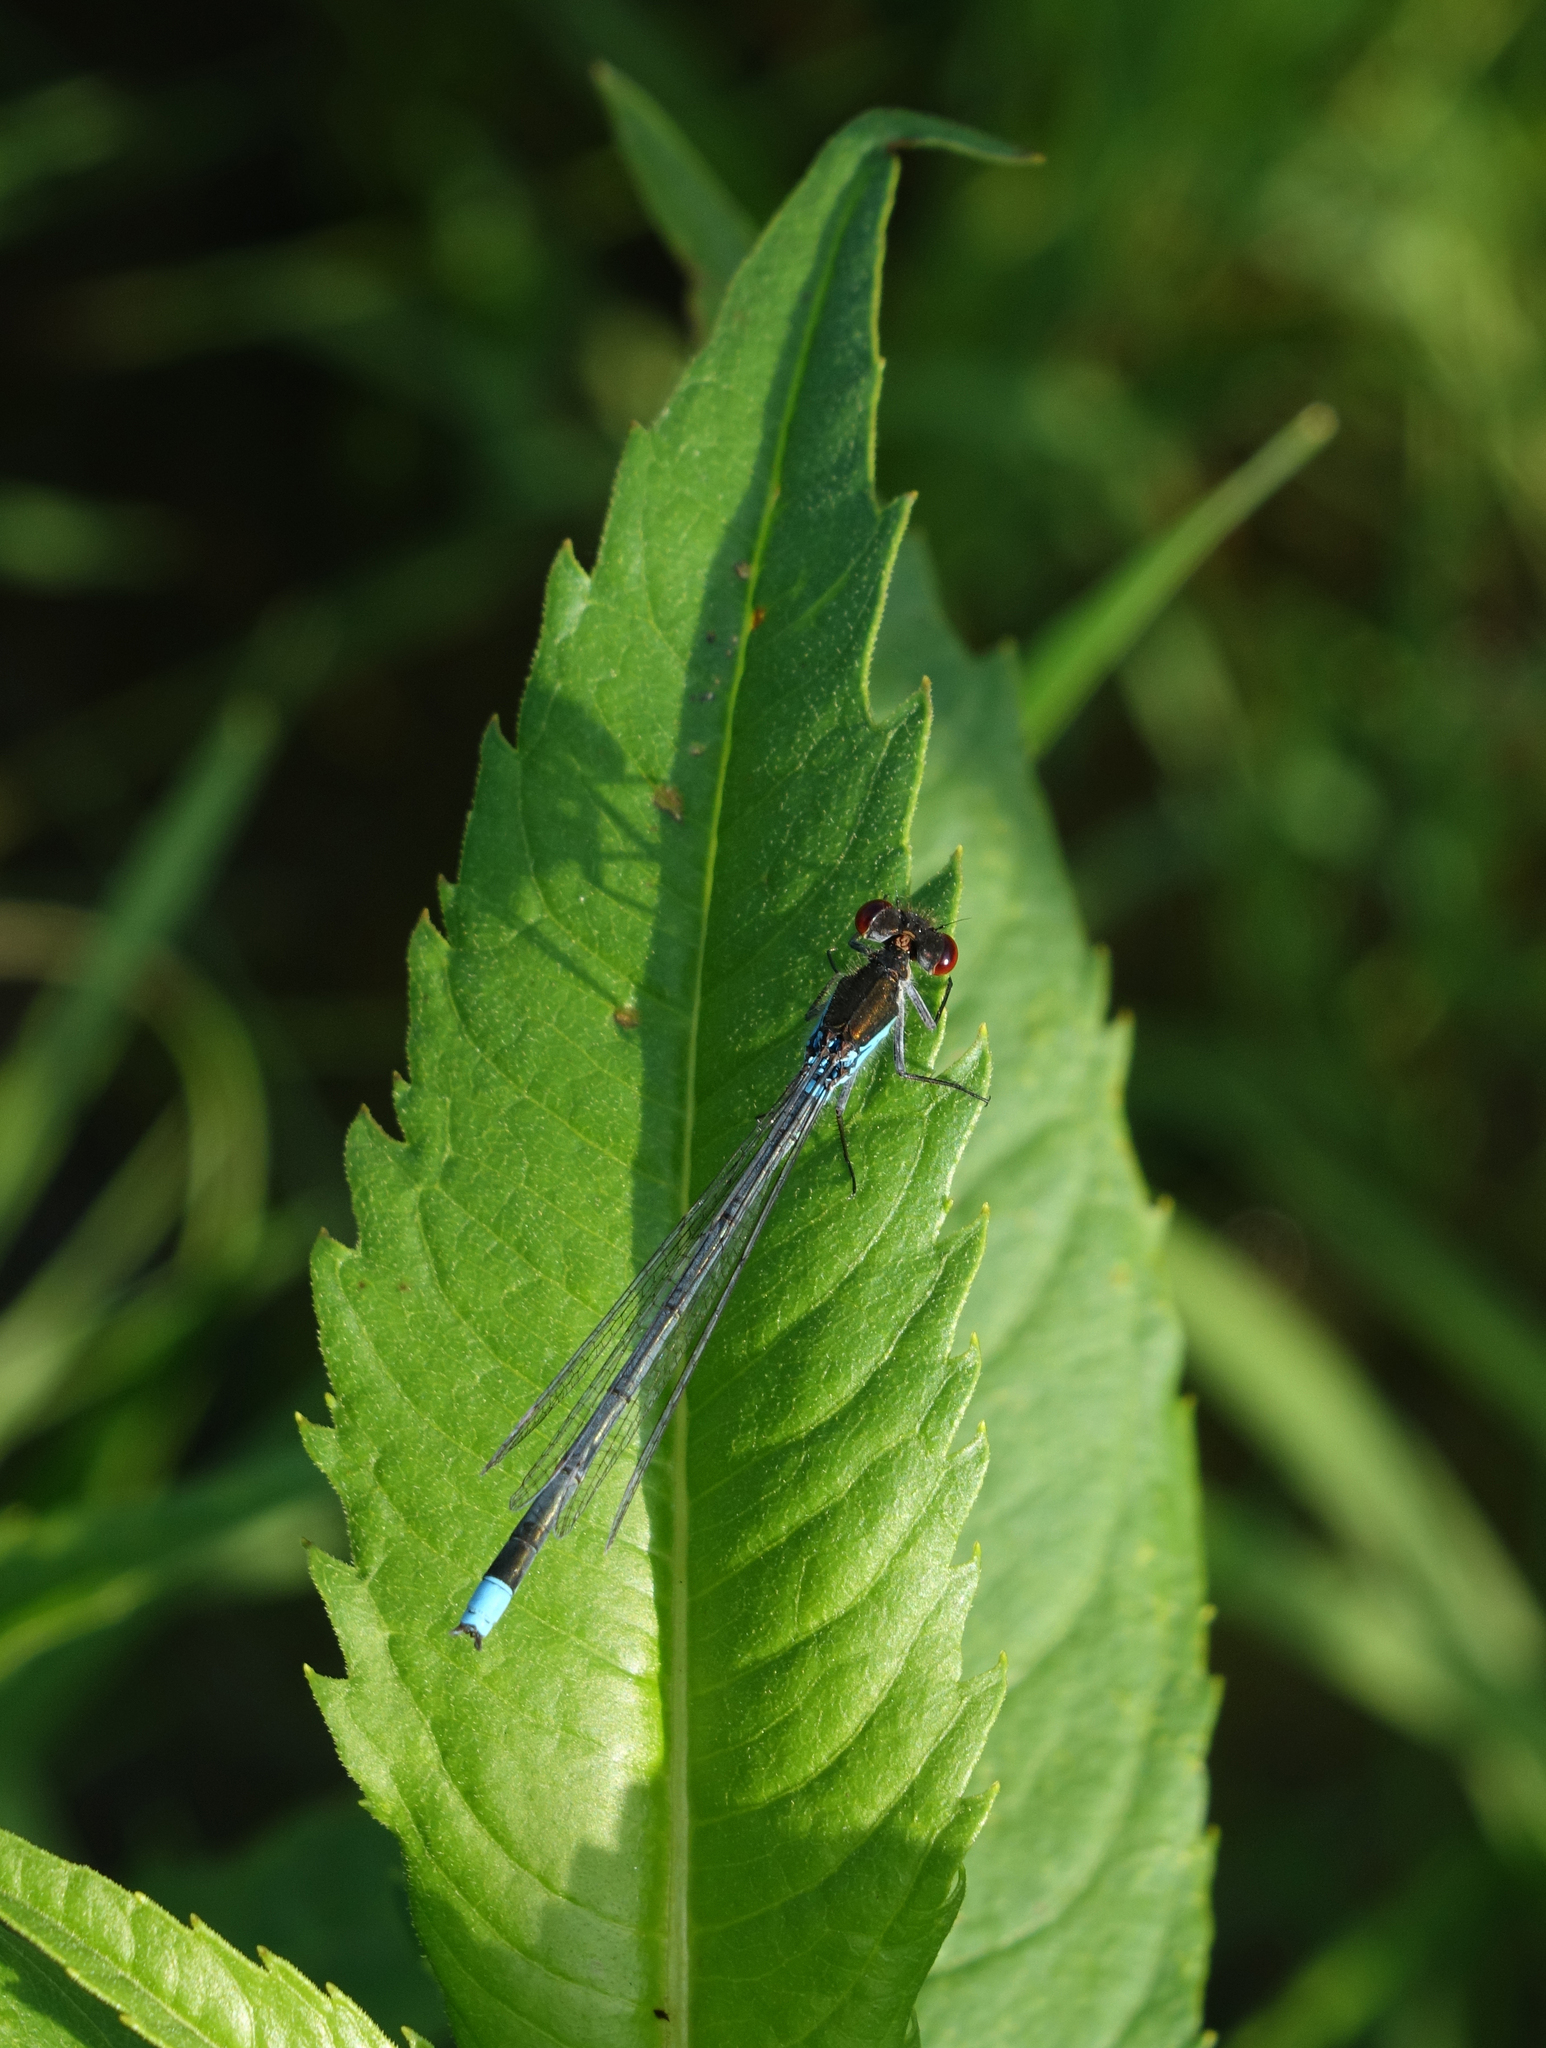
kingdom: Animalia
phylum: Arthropoda
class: Insecta
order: Odonata
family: Coenagrionidae
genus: Erythromma
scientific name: Erythromma najas
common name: Red-eyed damselfly
